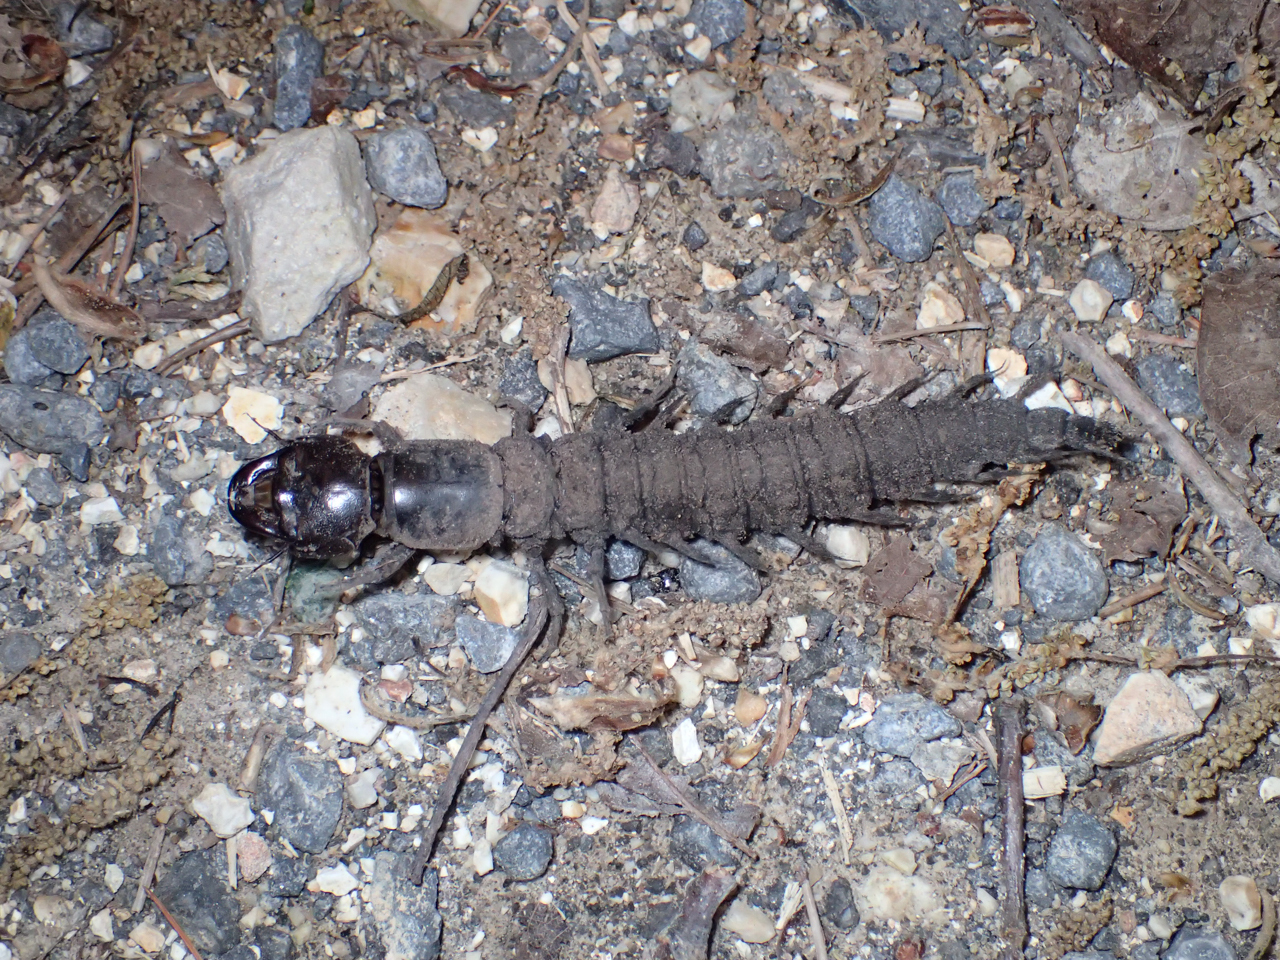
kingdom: Animalia
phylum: Arthropoda
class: Insecta
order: Megaloptera
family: Corydalidae
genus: Corydalus
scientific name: Corydalus cornutus
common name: Dobsonfly
